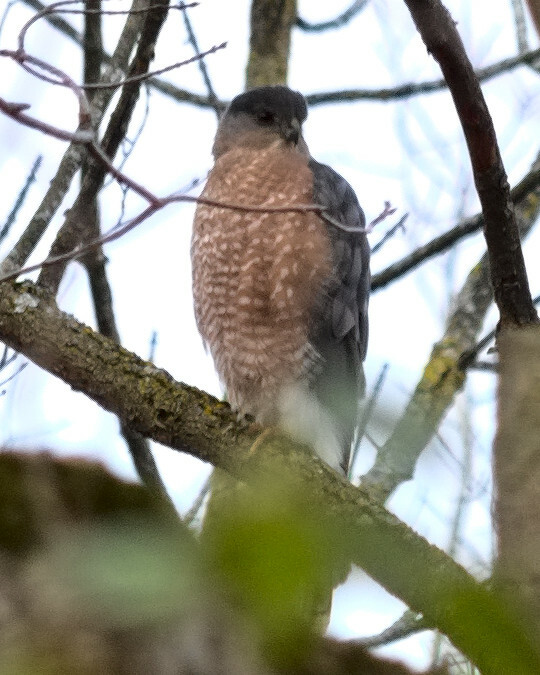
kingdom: Animalia
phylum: Chordata
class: Aves
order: Accipitriformes
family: Accipitridae
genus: Accipiter
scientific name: Accipiter cooperii
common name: Cooper's hawk
